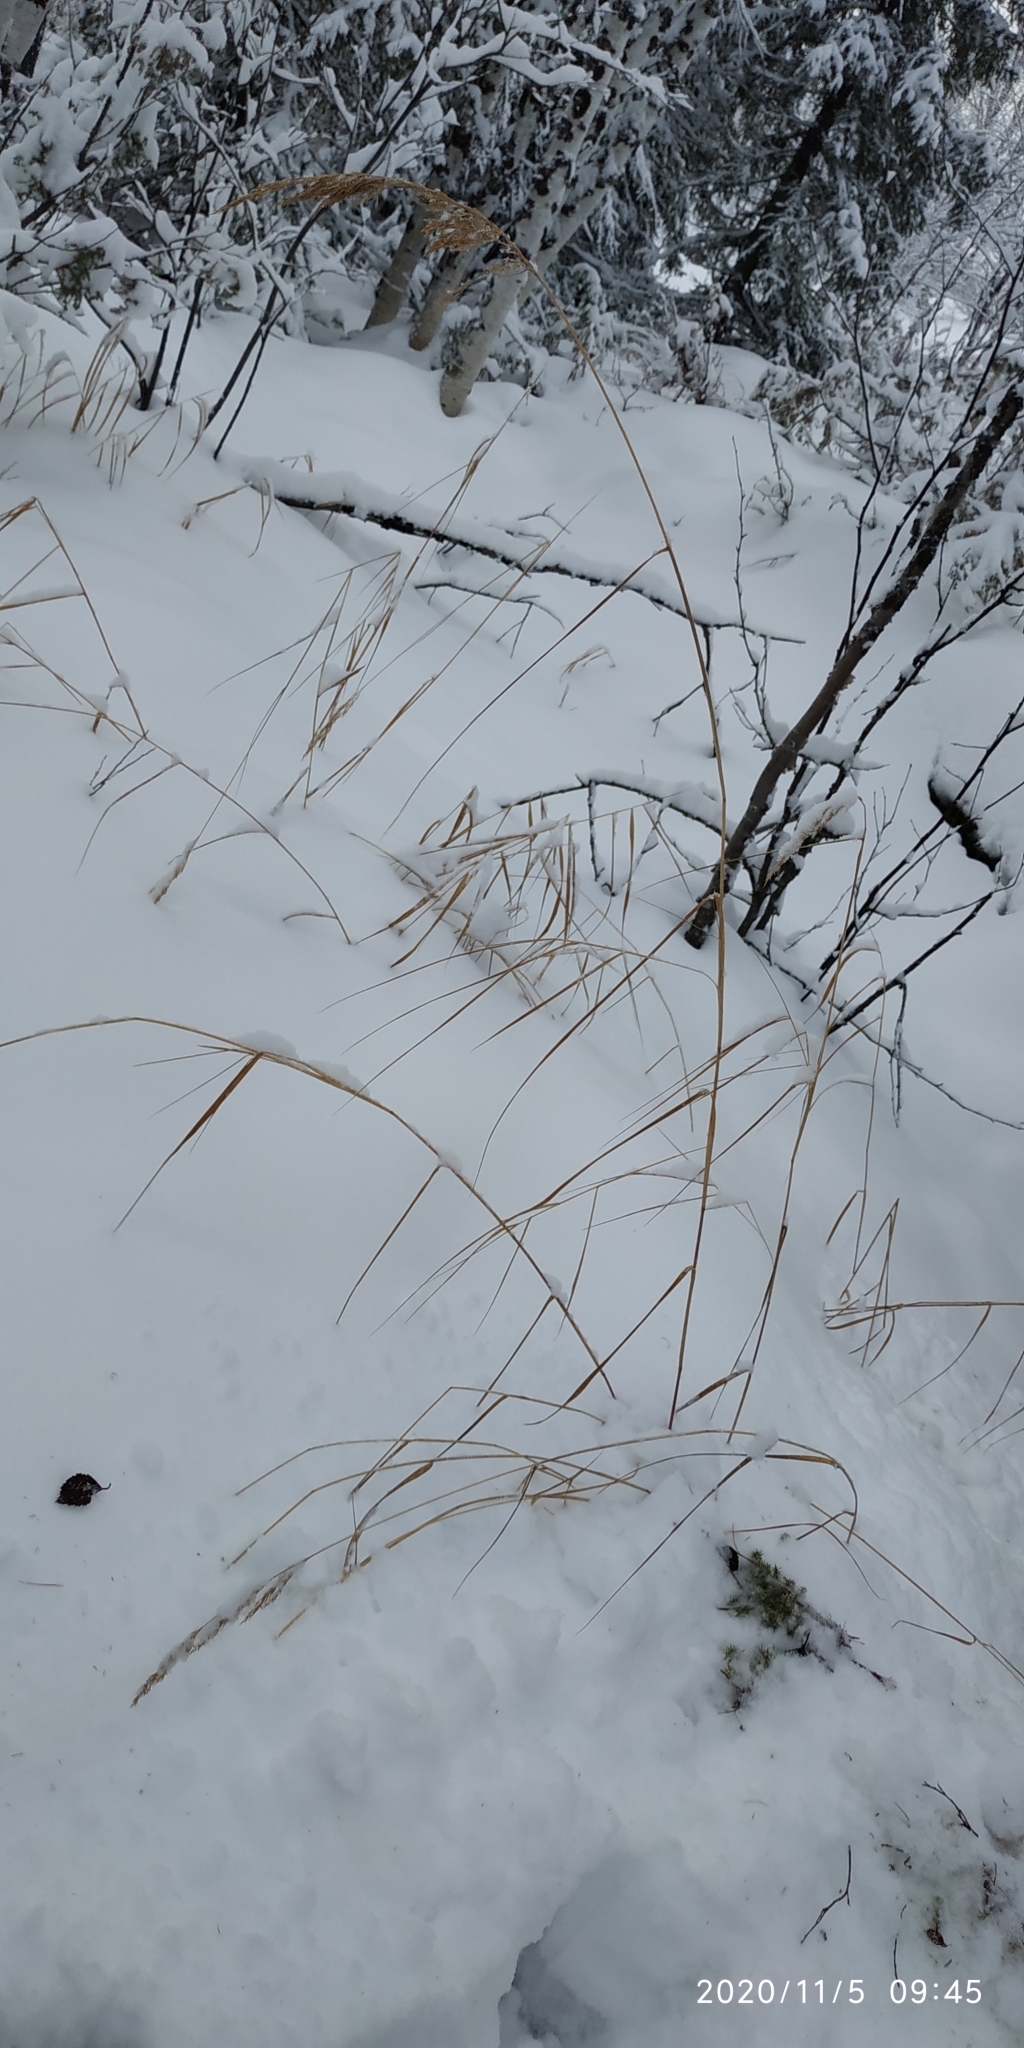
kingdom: Plantae
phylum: Tracheophyta
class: Liliopsida
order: Poales
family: Poaceae
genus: Calamagrostis
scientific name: Calamagrostis purpurea
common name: Scandinavian small-reed
